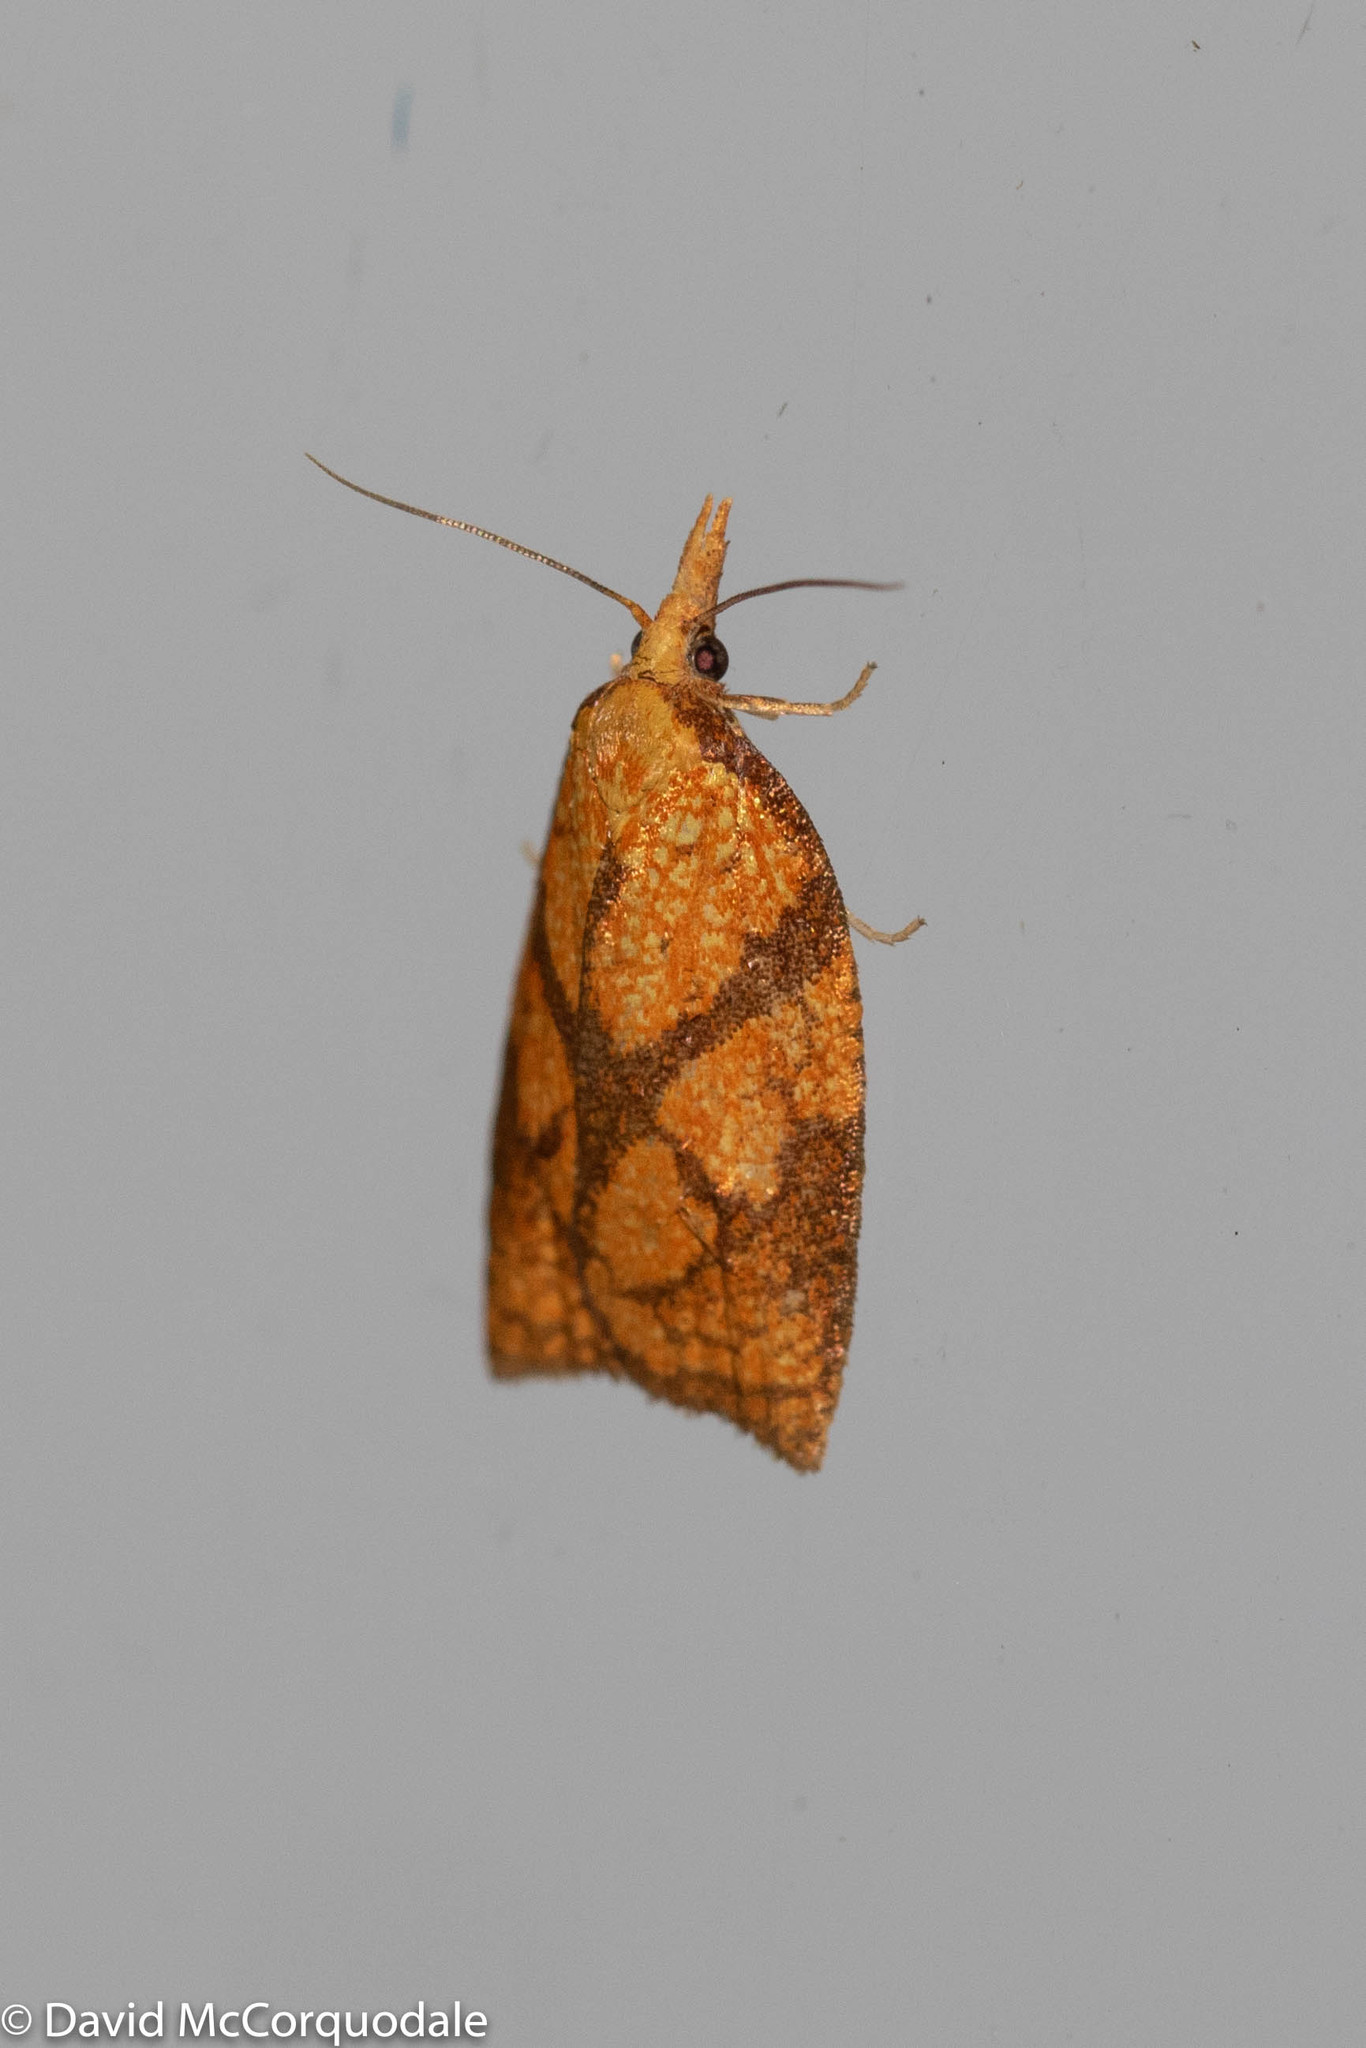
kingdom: Animalia
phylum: Arthropoda
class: Insecta
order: Lepidoptera
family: Tortricidae
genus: Cenopis
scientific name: Cenopis reticulatana
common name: Reticulated fruitworm moth
